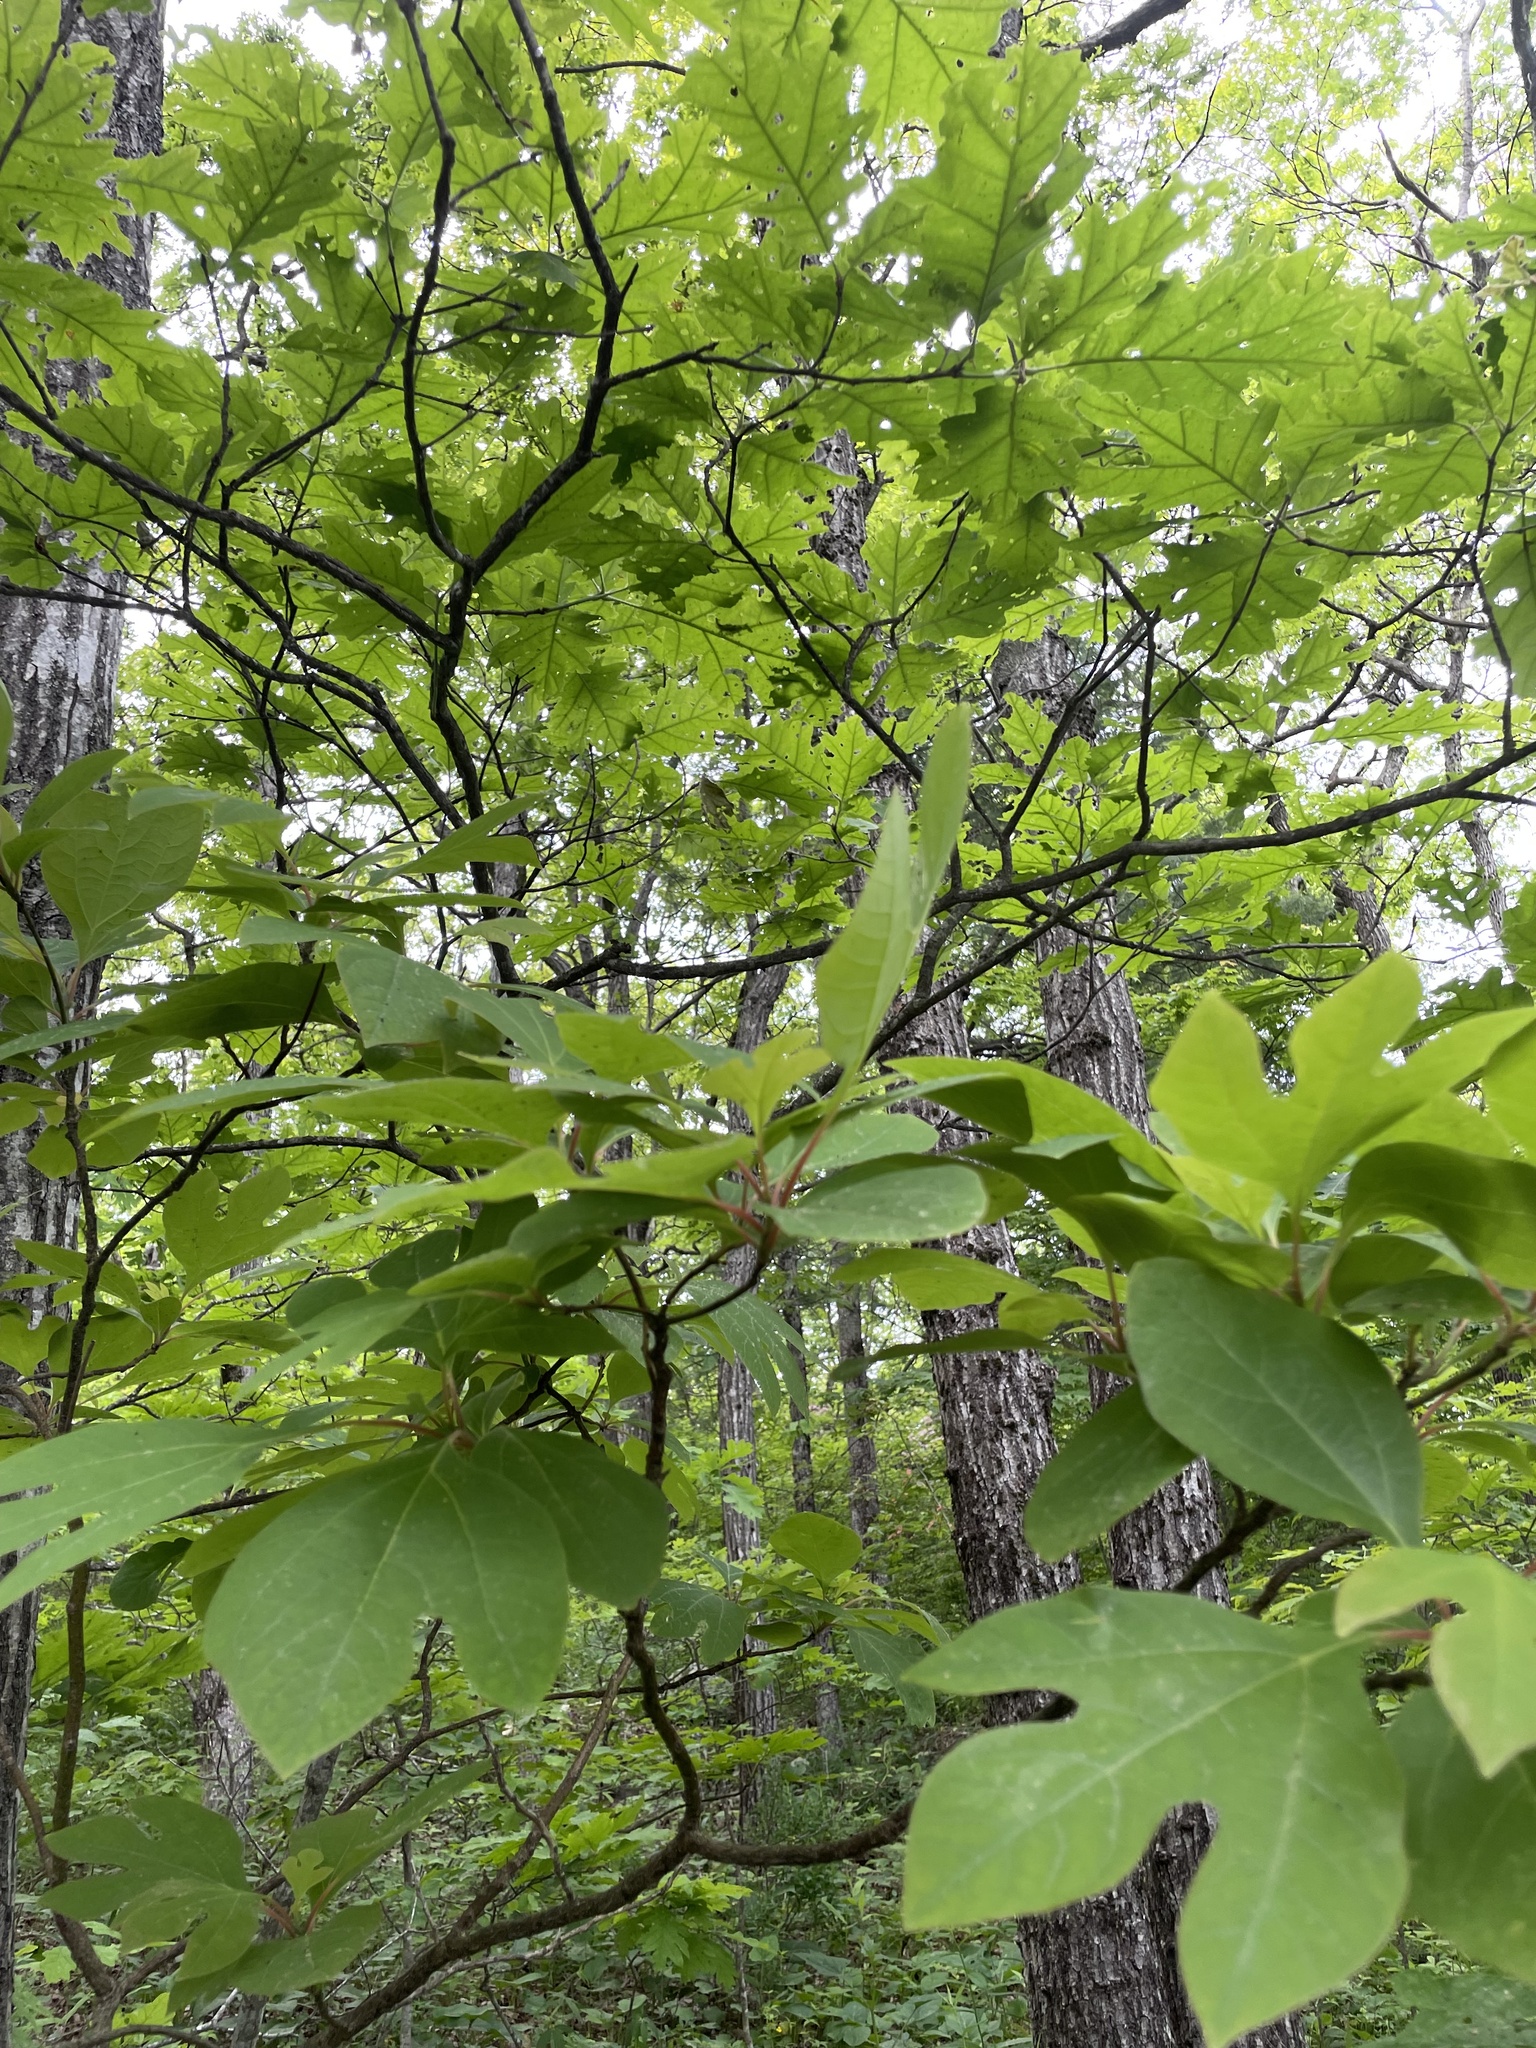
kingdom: Plantae
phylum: Tracheophyta
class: Magnoliopsida
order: Laurales
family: Lauraceae
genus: Sassafras
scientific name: Sassafras albidum
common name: Sassafras
